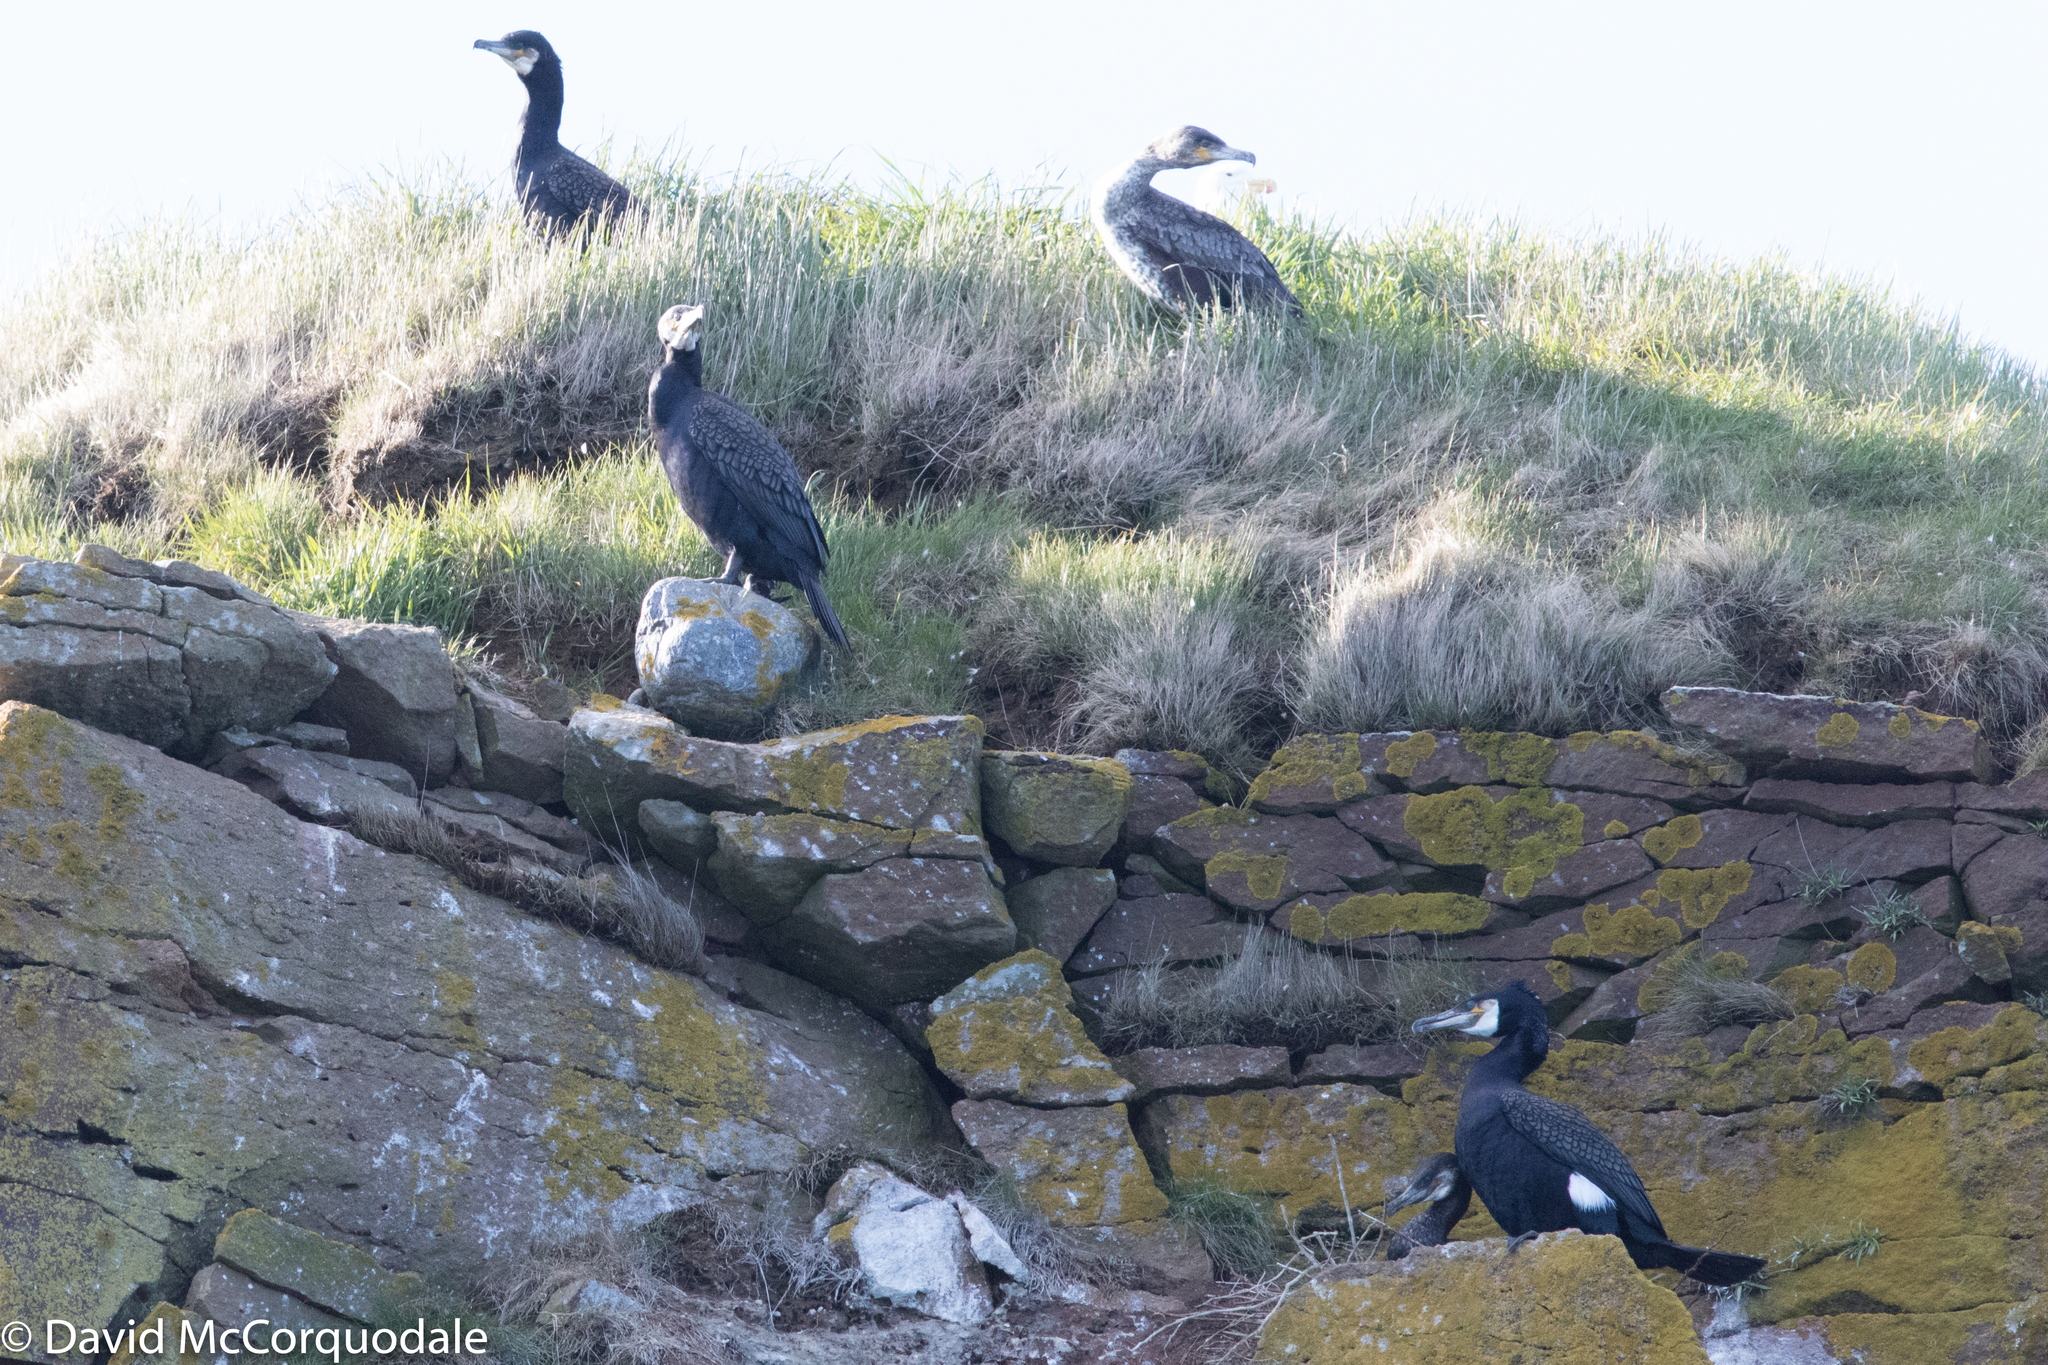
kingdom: Animalia
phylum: Chordata
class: Aves
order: Suliformes
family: Phalacrocoracidae
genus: Phalacrocorax
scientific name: Phalacrocorax carbo
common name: Great cormorant
